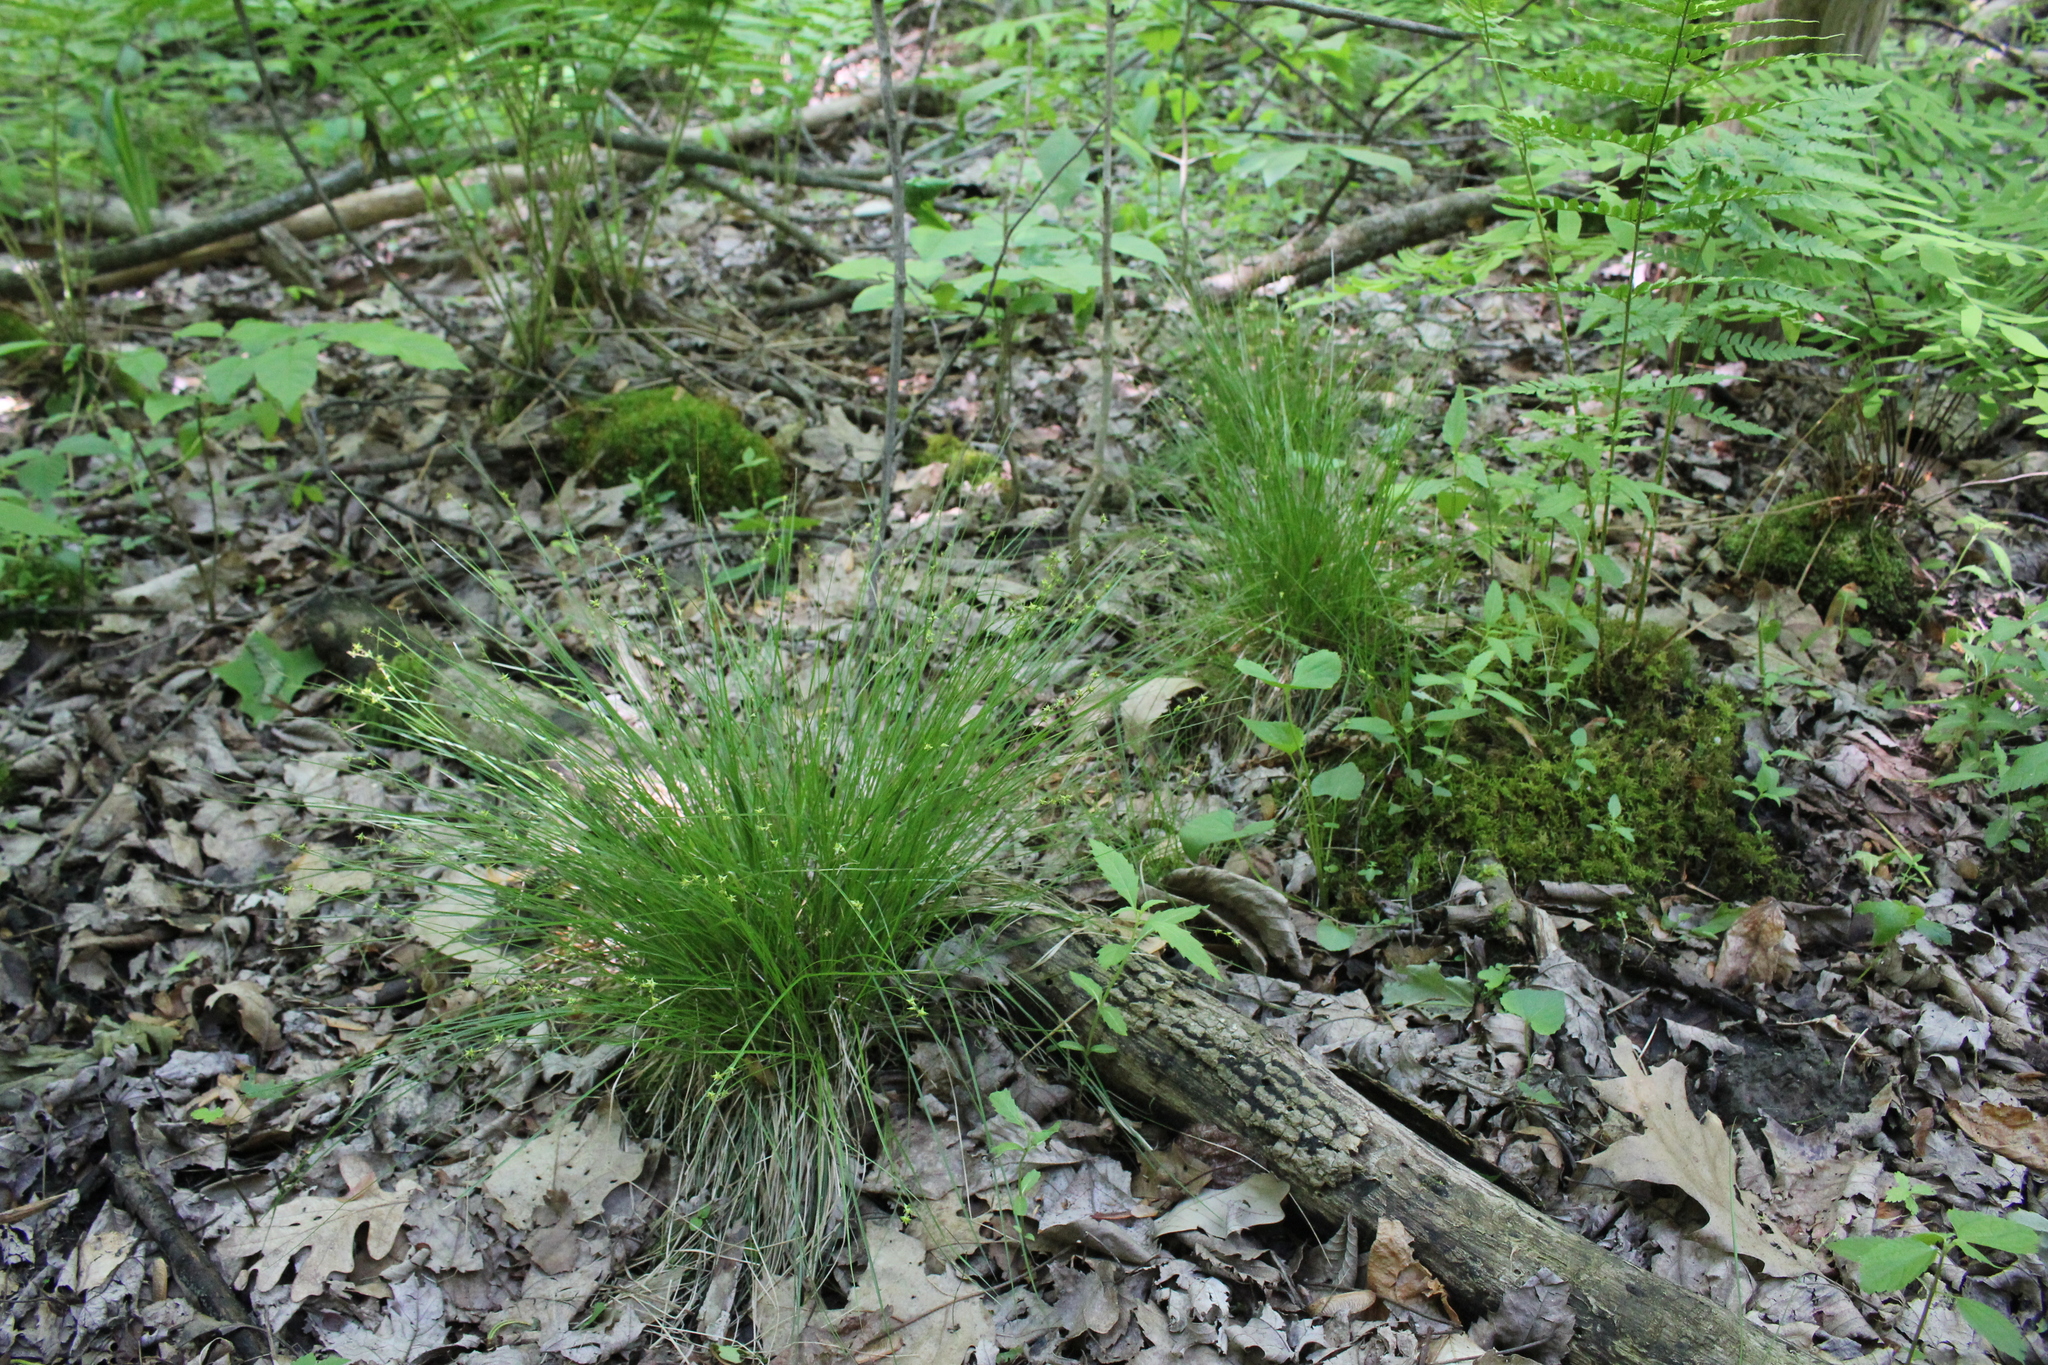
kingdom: Plantae
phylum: Tracheophyta
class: Liliopsida
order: Poales
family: Cyperaceae
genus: Carex
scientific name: Carex interior
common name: Inland sedge
